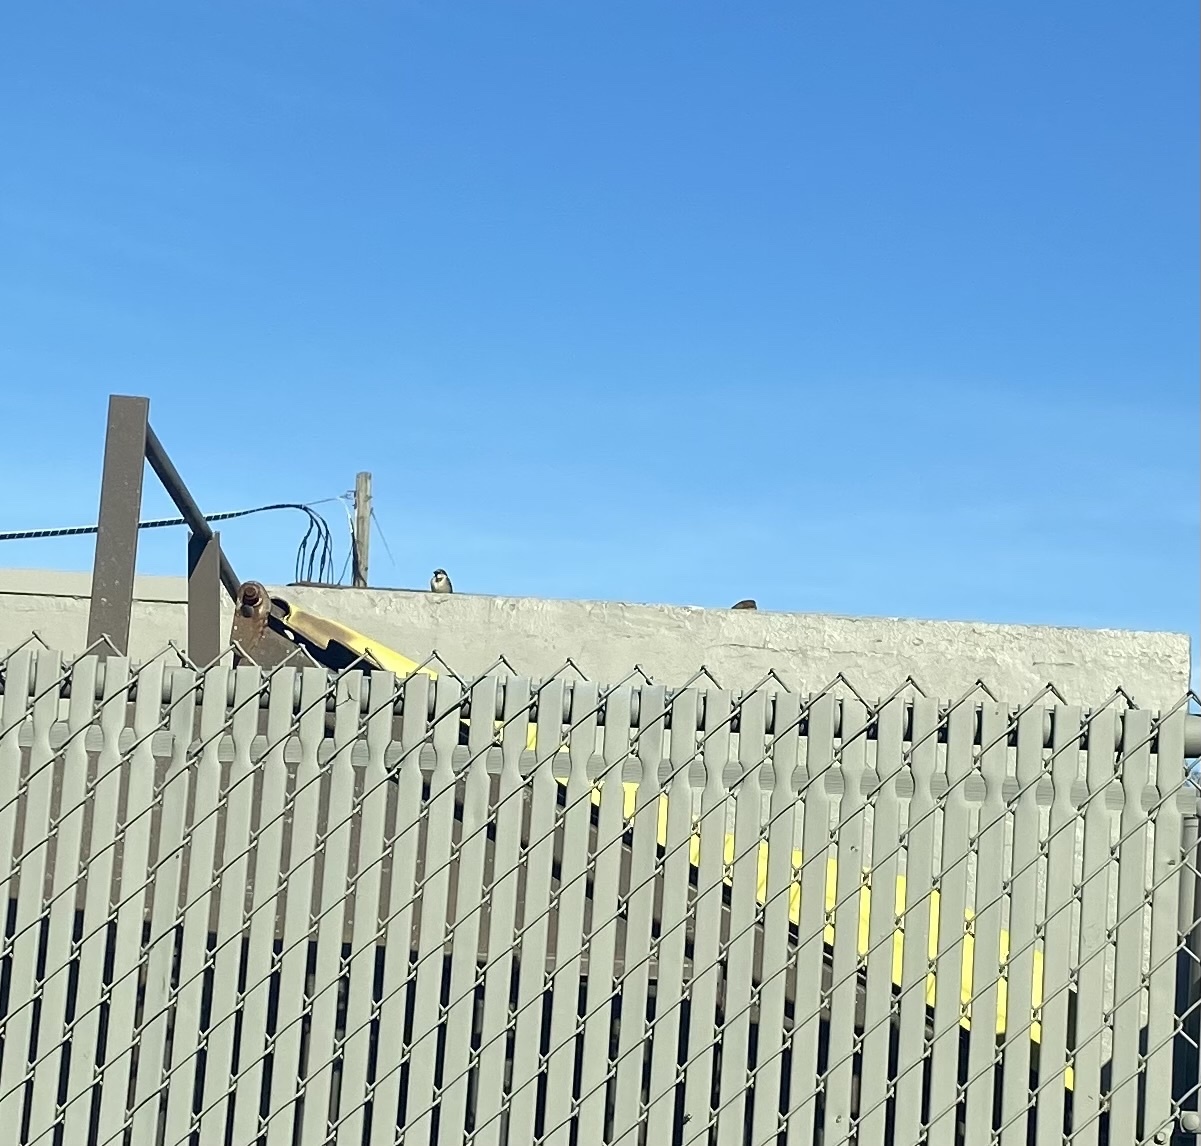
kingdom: Animalia
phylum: Chordata
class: Aves
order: Passeriformes
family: Passeridae
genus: Passer
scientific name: Passer domesticus
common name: House sparrow
